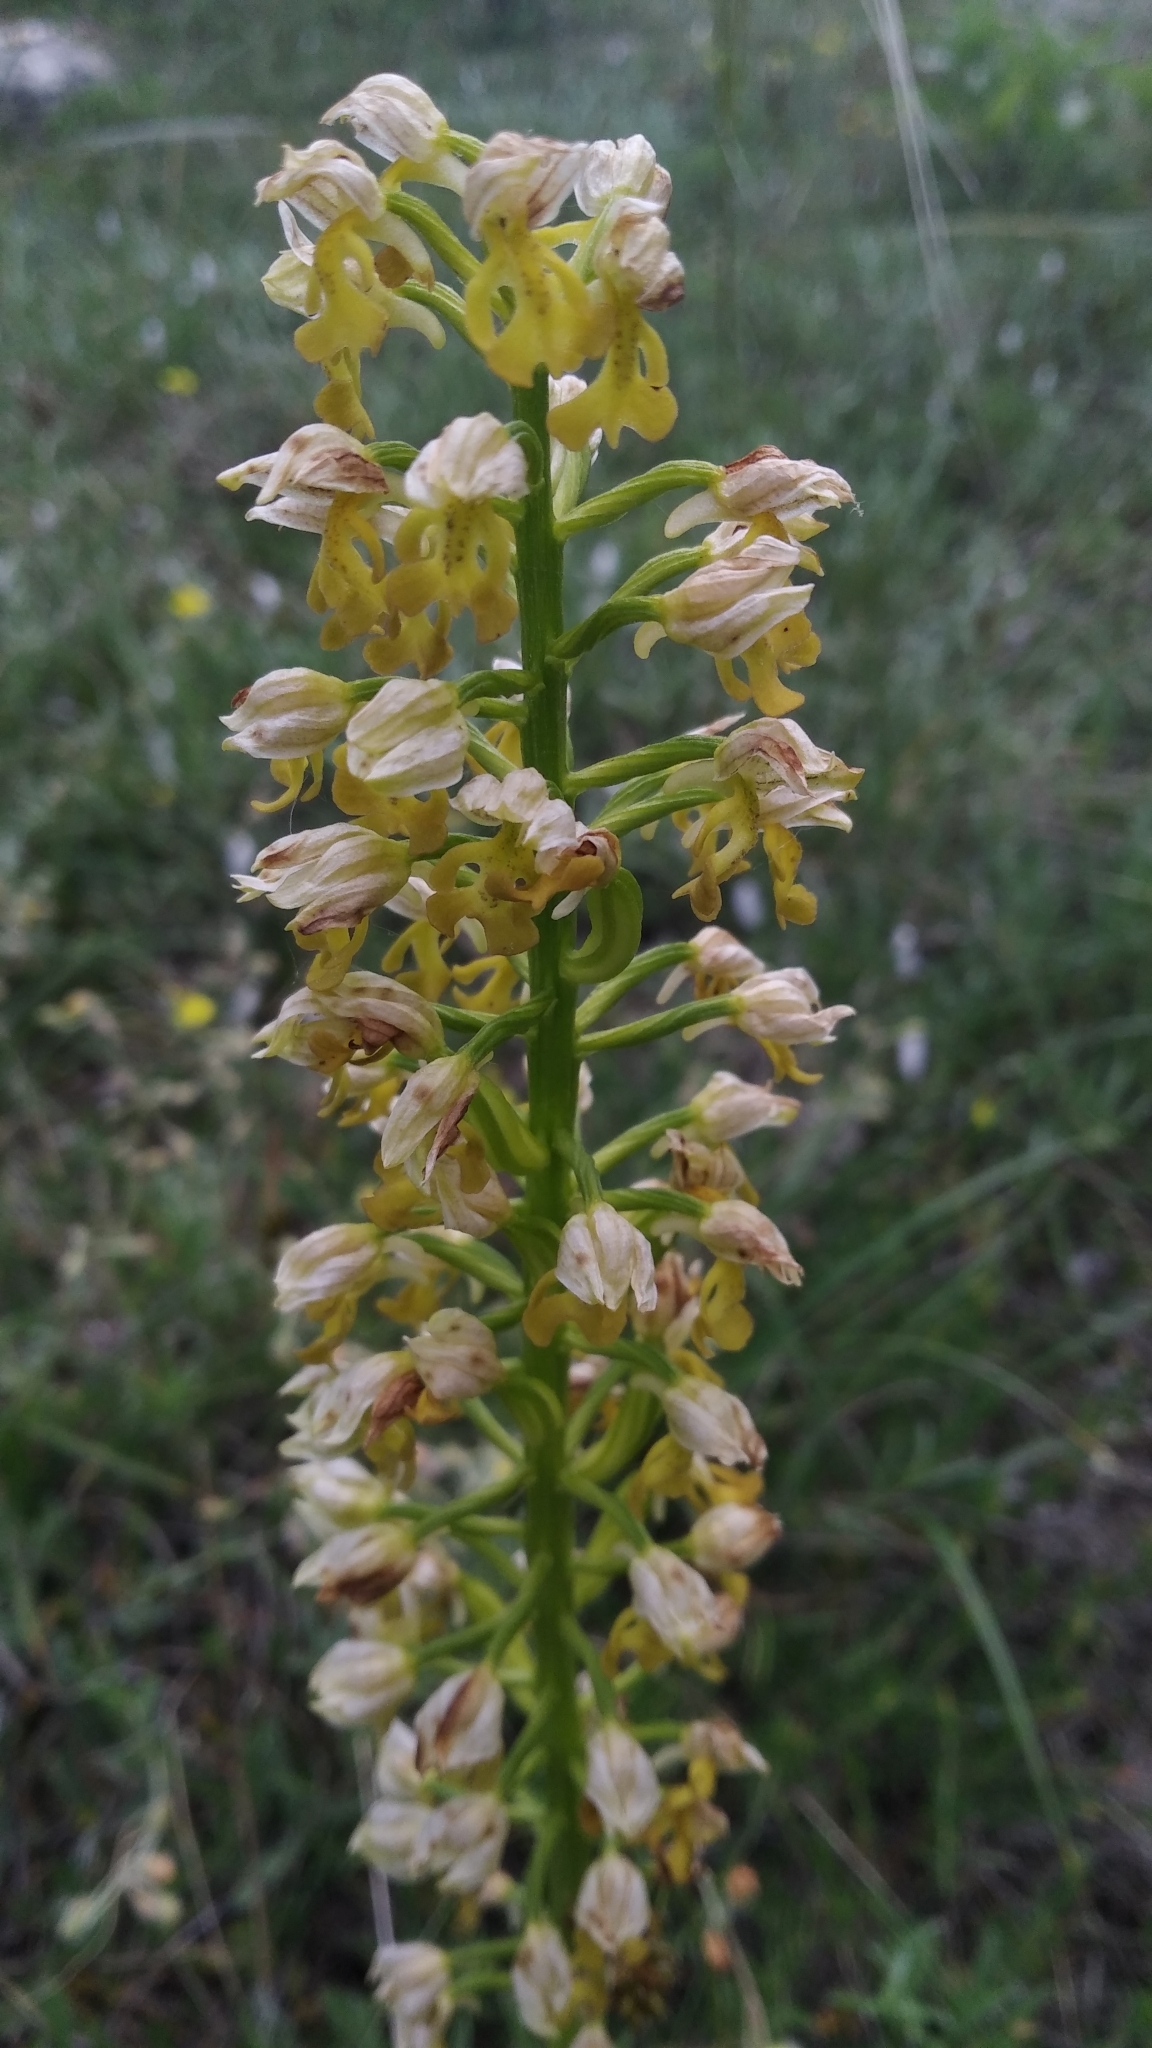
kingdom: Plantae
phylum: Tracheophyta
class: Liliopsida
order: Asparagales
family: Orchidaceae
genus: Orchis
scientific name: Orchis punctulata
